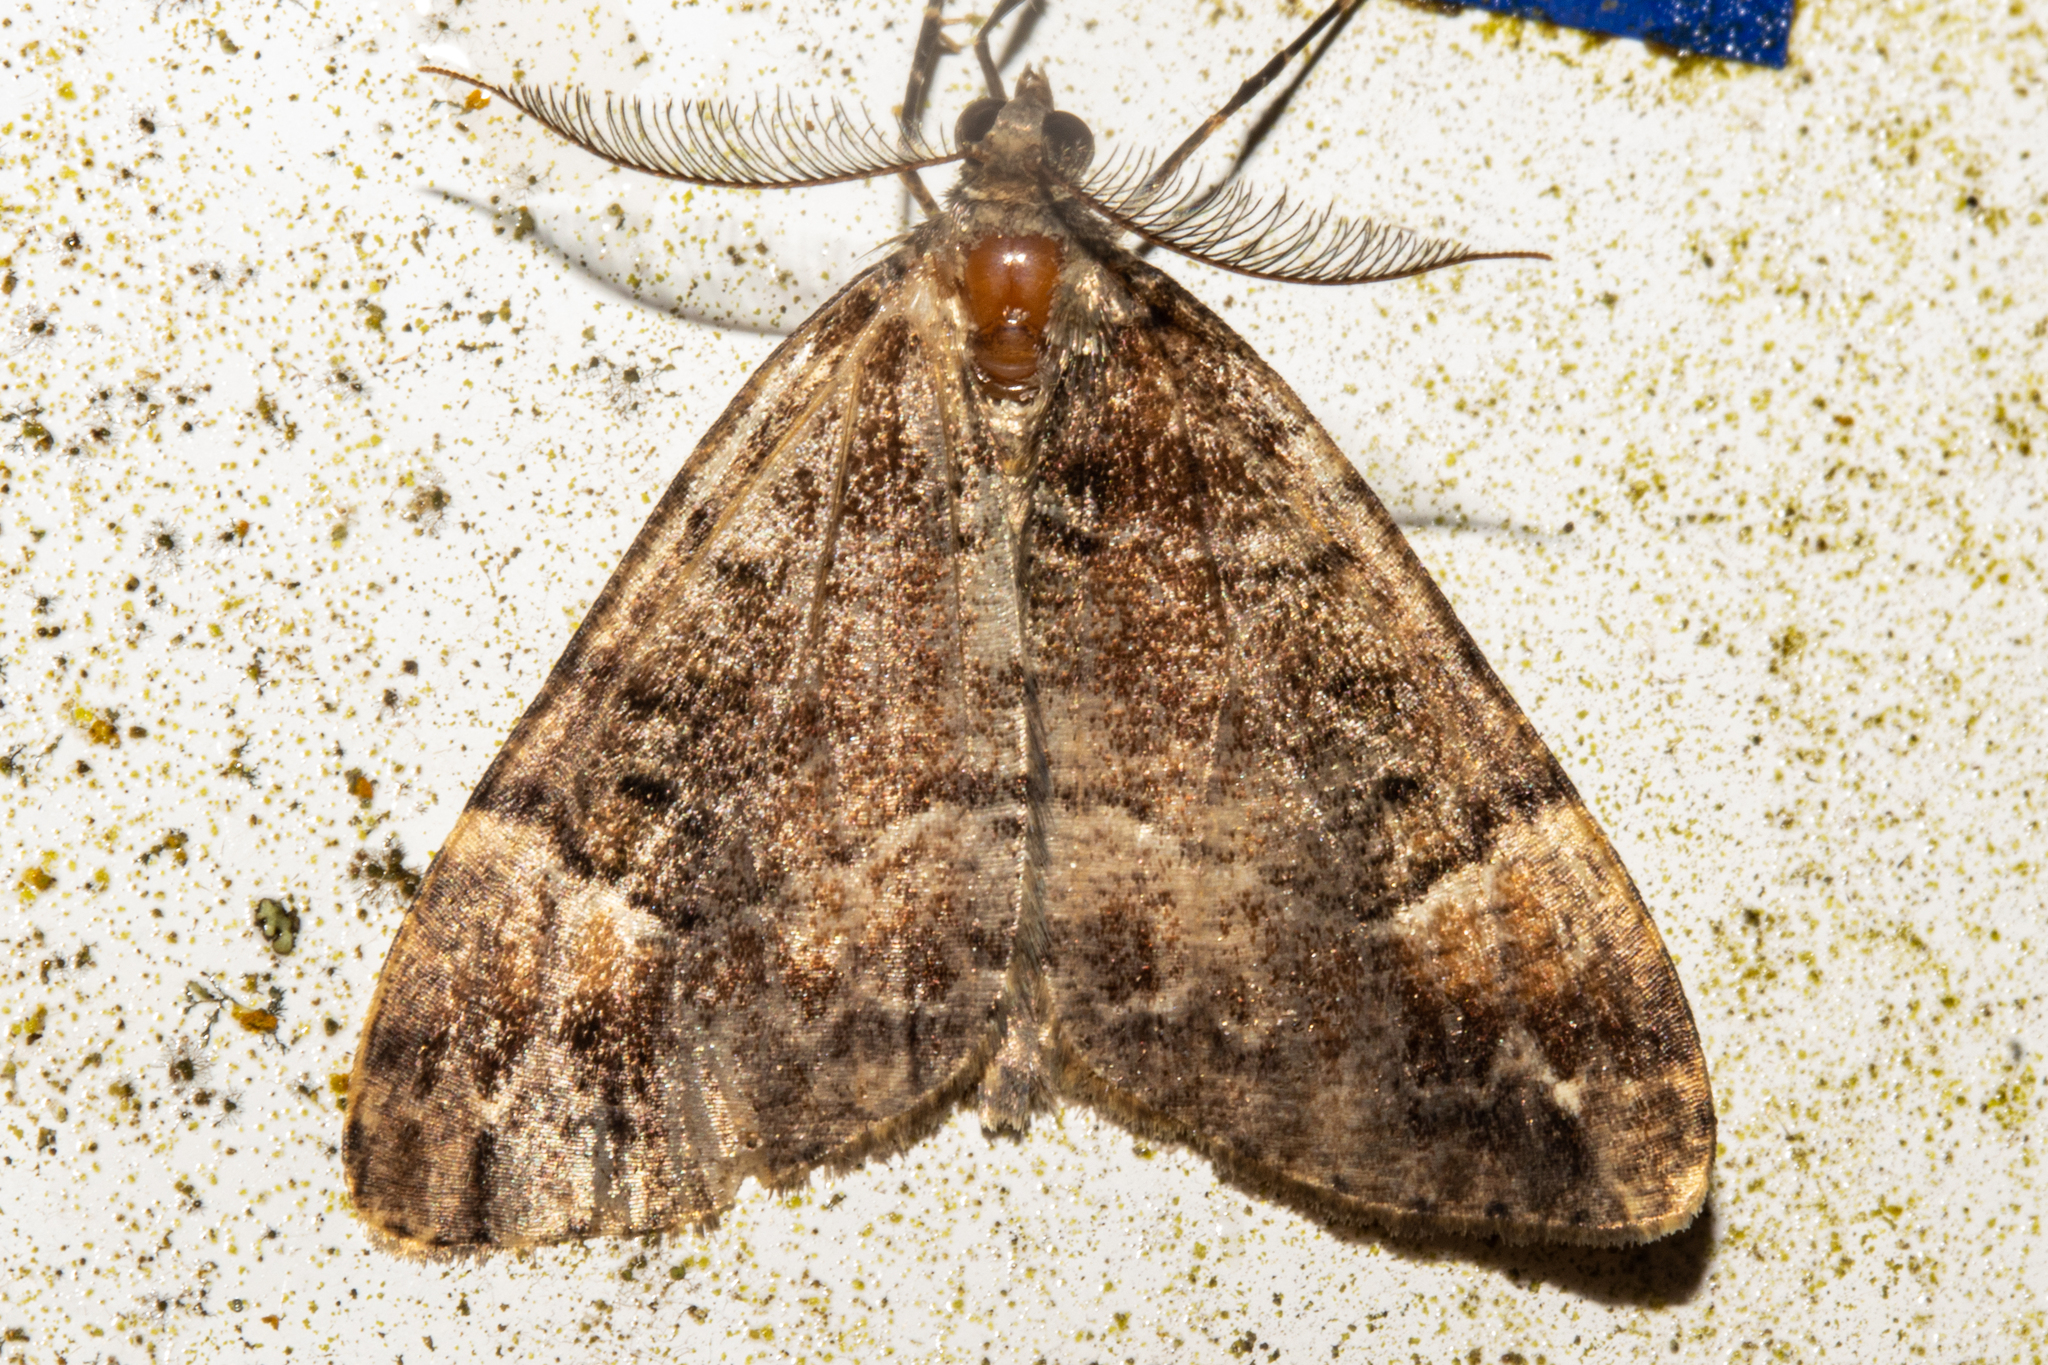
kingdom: Animalia
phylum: Arthropoda
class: Insecta
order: Lepidoptera
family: Geometridae
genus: Pseudocoremia
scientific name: Pseudocoremia productata
